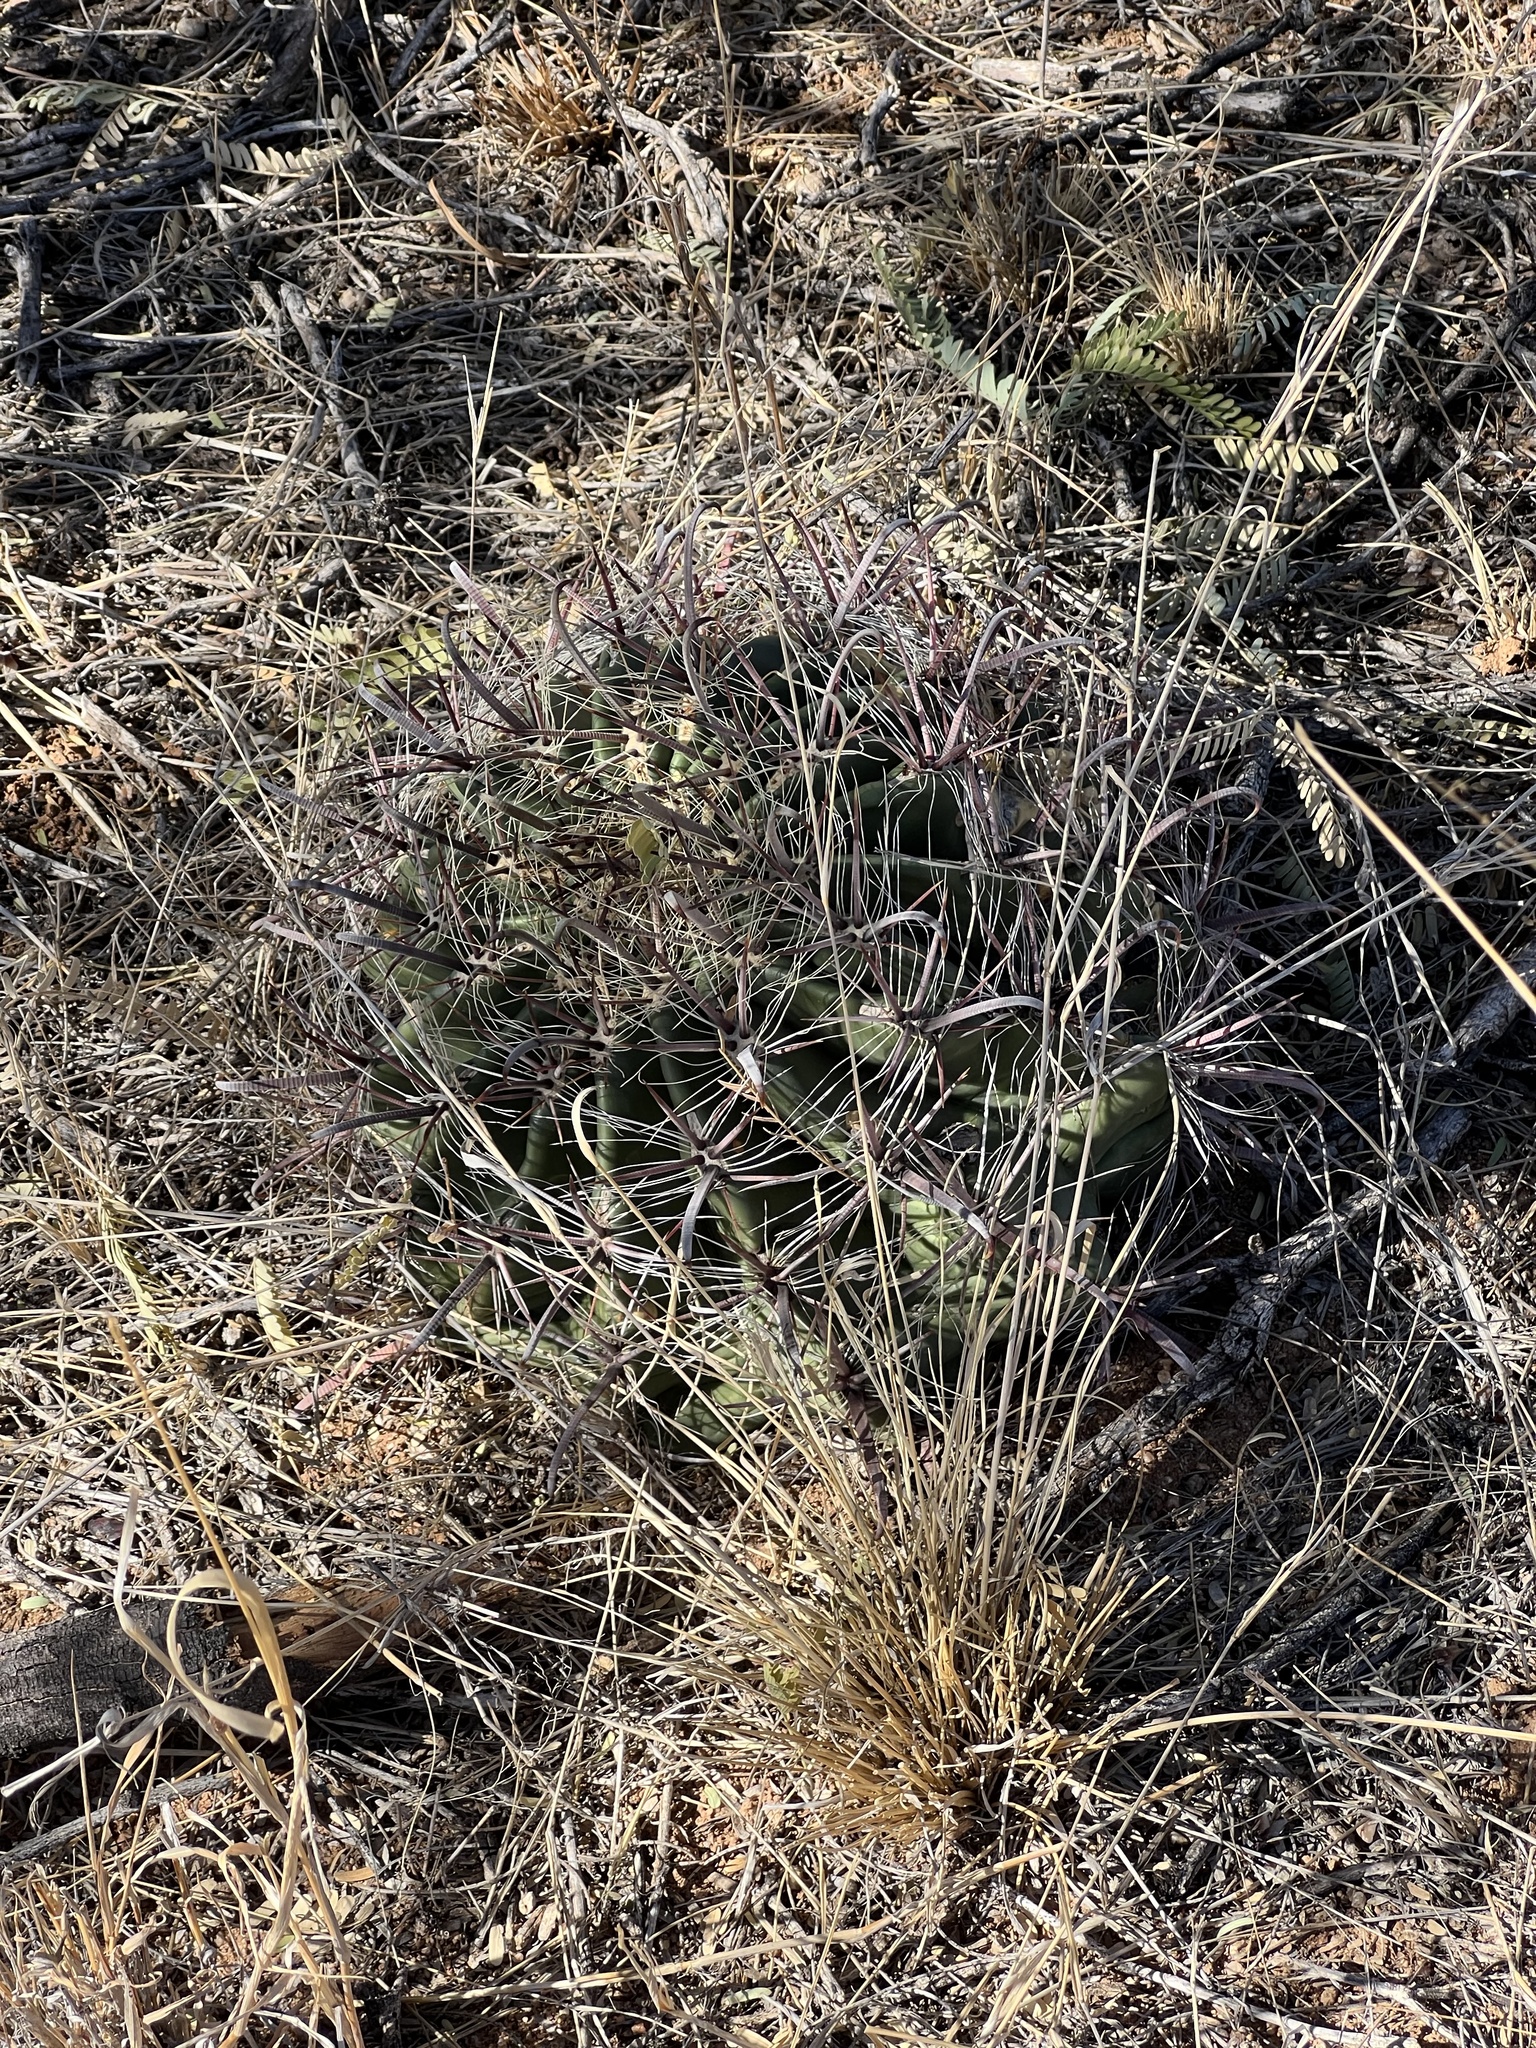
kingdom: Plantae
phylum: Tracheophyta
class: Magnoliopsida
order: Caryophyllales
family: Cactaceae
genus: Ferocactus
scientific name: Ferocactus wislizeni
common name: Candy barrel cactus
